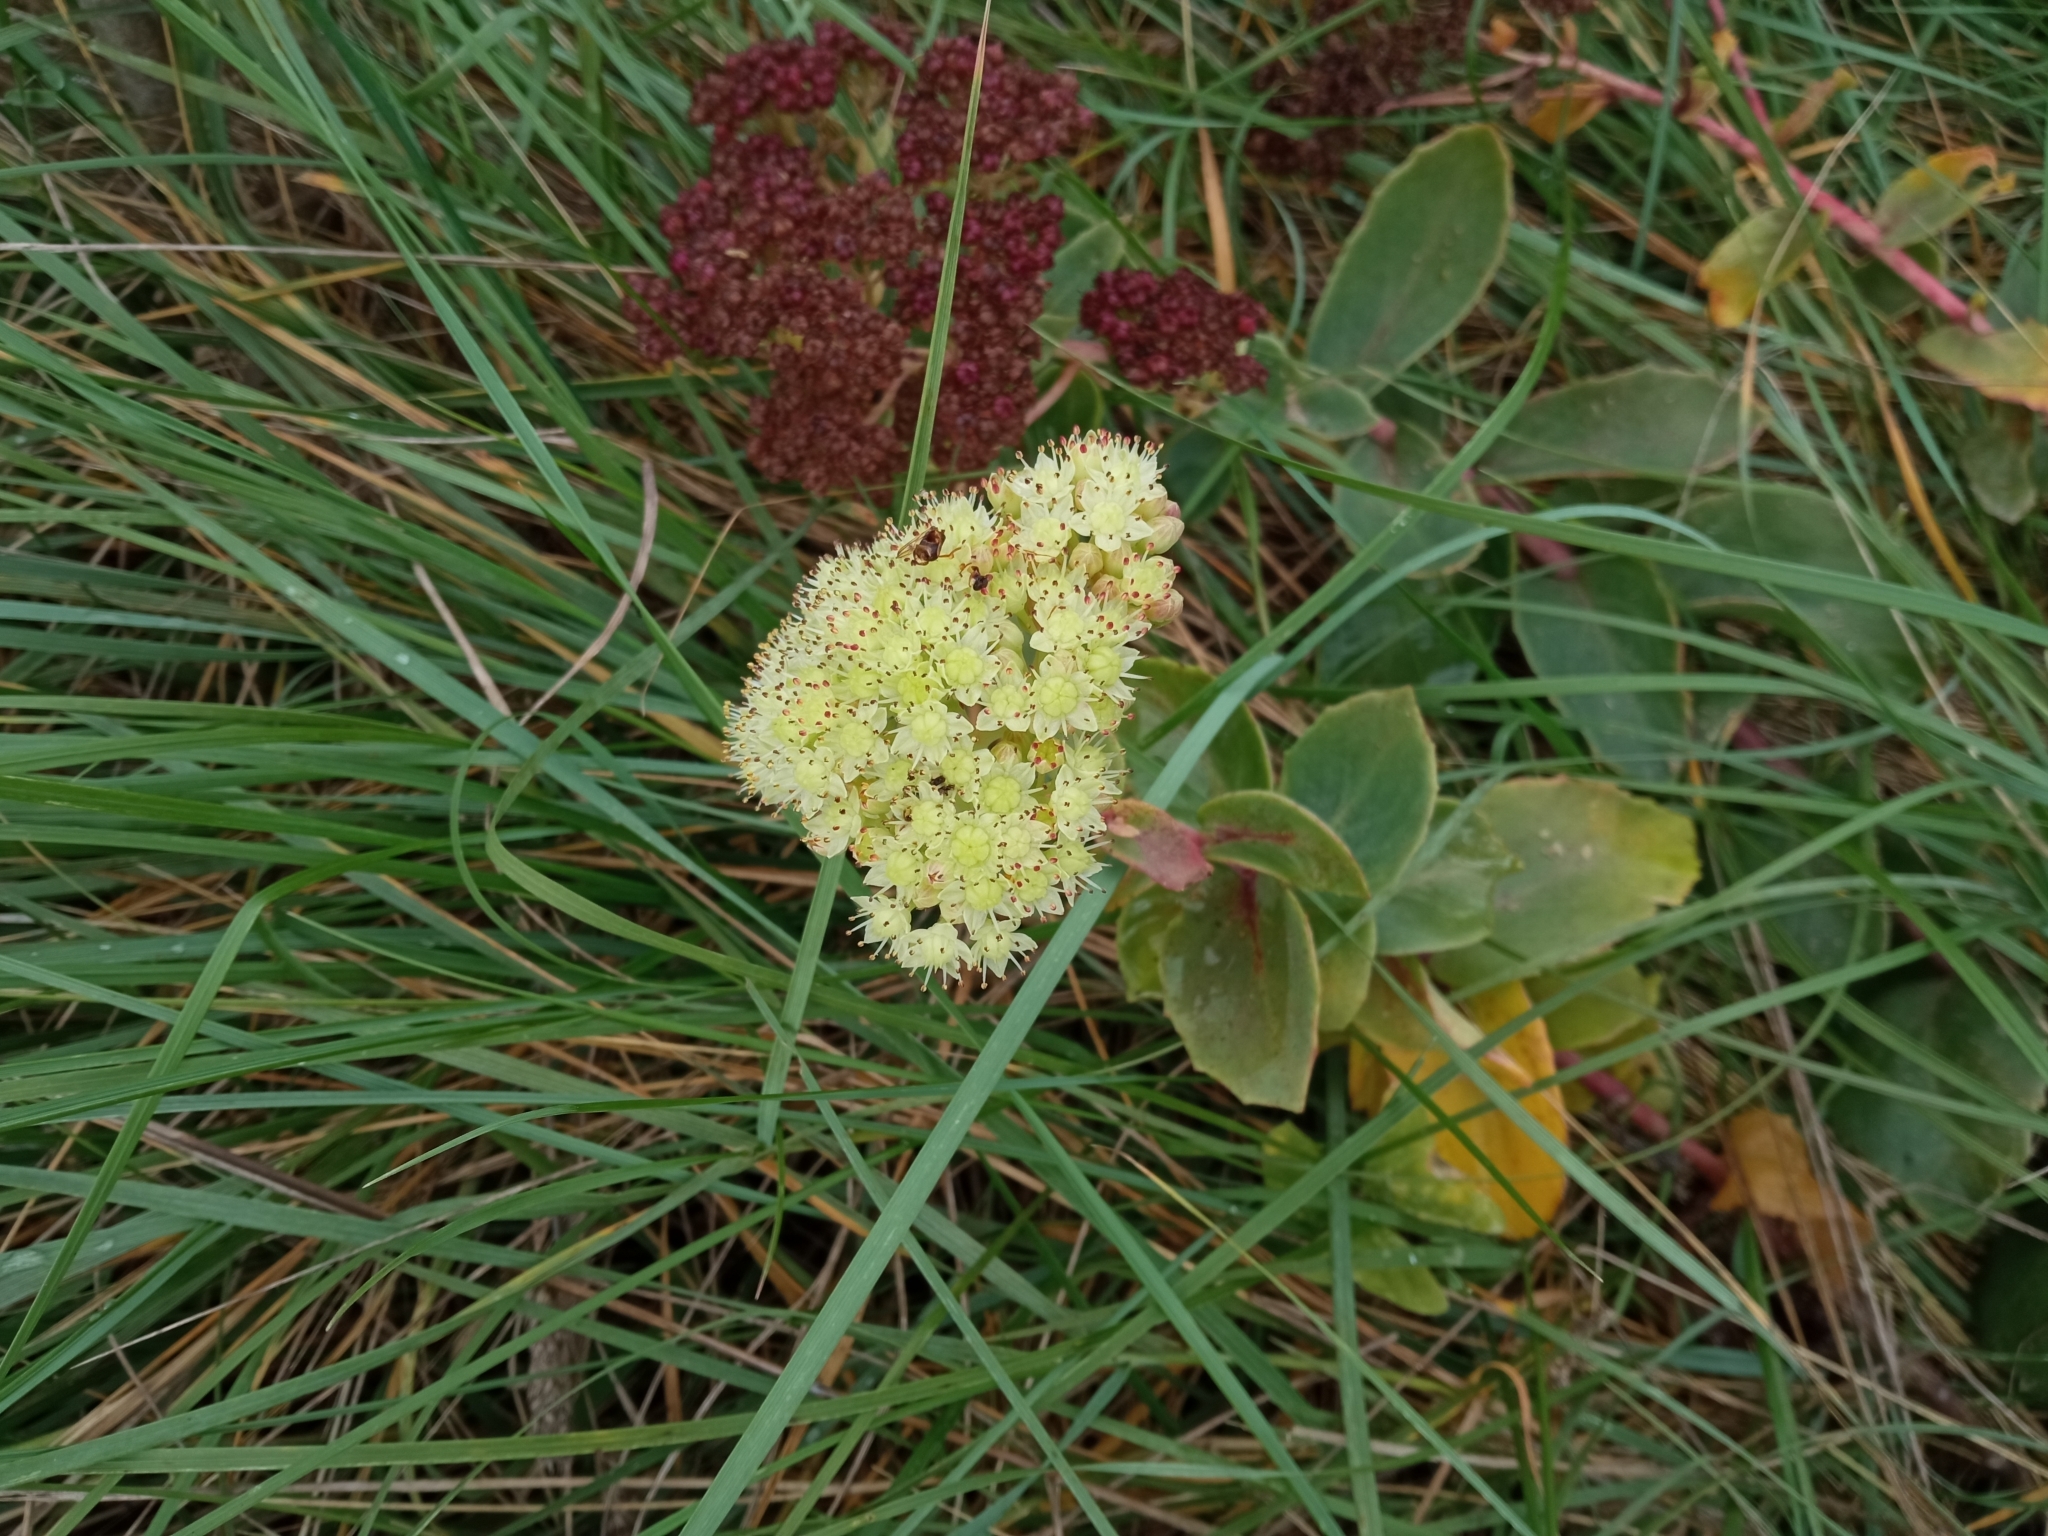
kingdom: Plantae
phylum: Tracheophyta
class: Magnoliopsida
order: Saxifragales
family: Crassulaceae
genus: Hylotelephium
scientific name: Hylotelephium maximum
